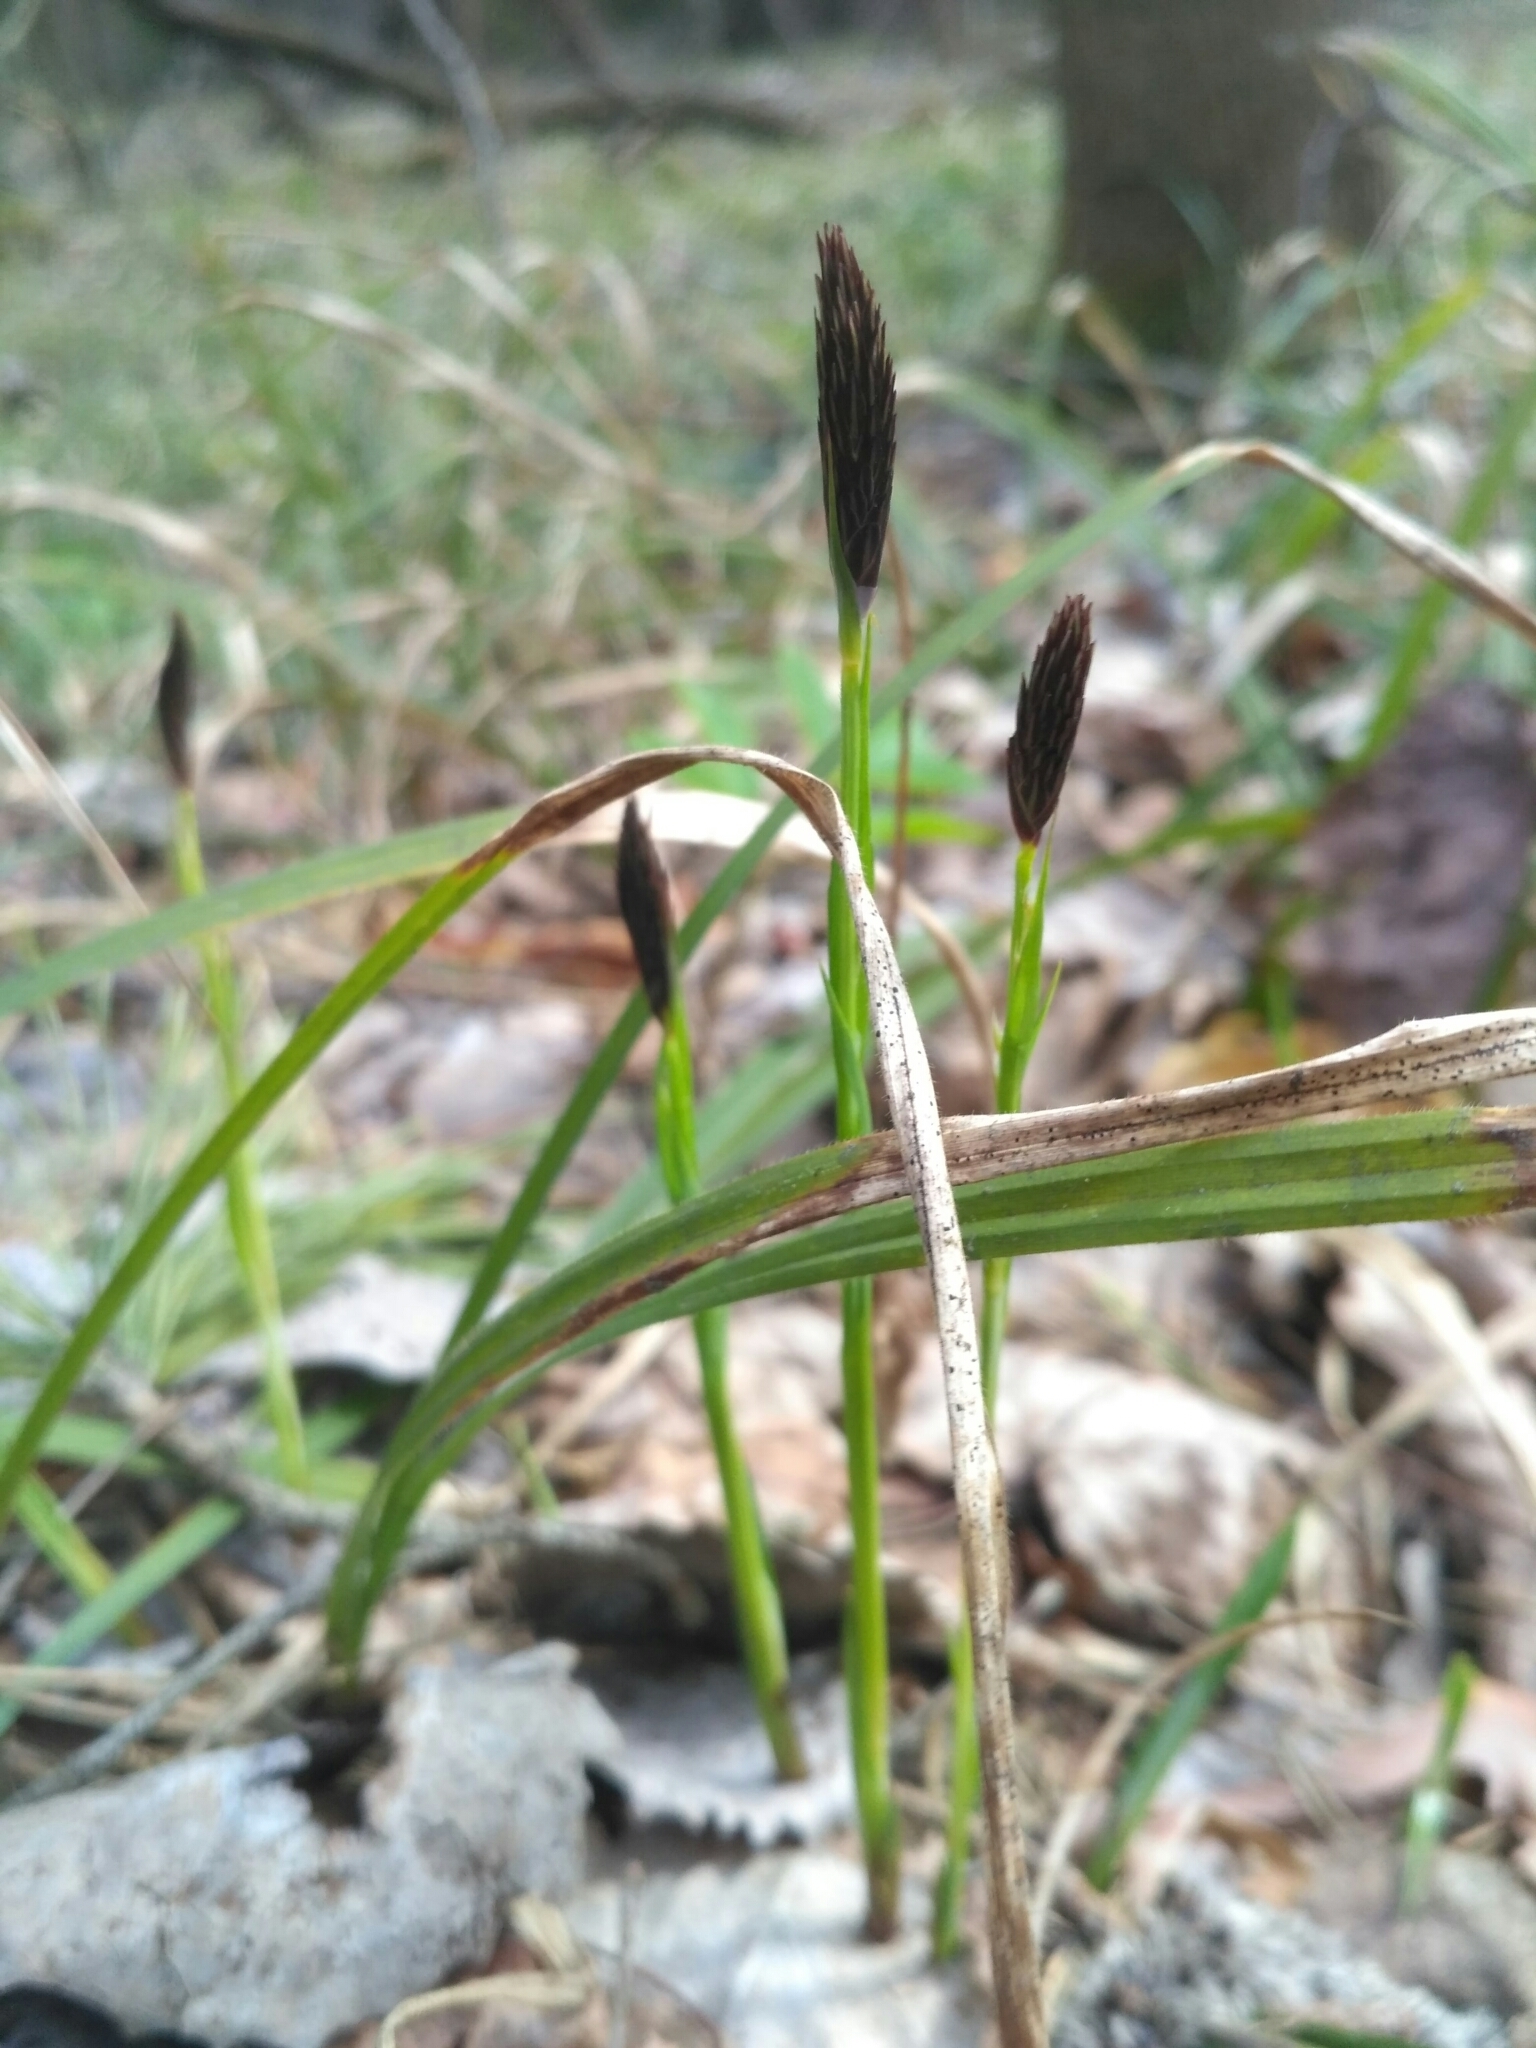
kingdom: Plantae
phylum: Tracheophyta
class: Liliopsida
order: Poales
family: Cyperaceae
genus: Carex
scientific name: Carex pilosa
